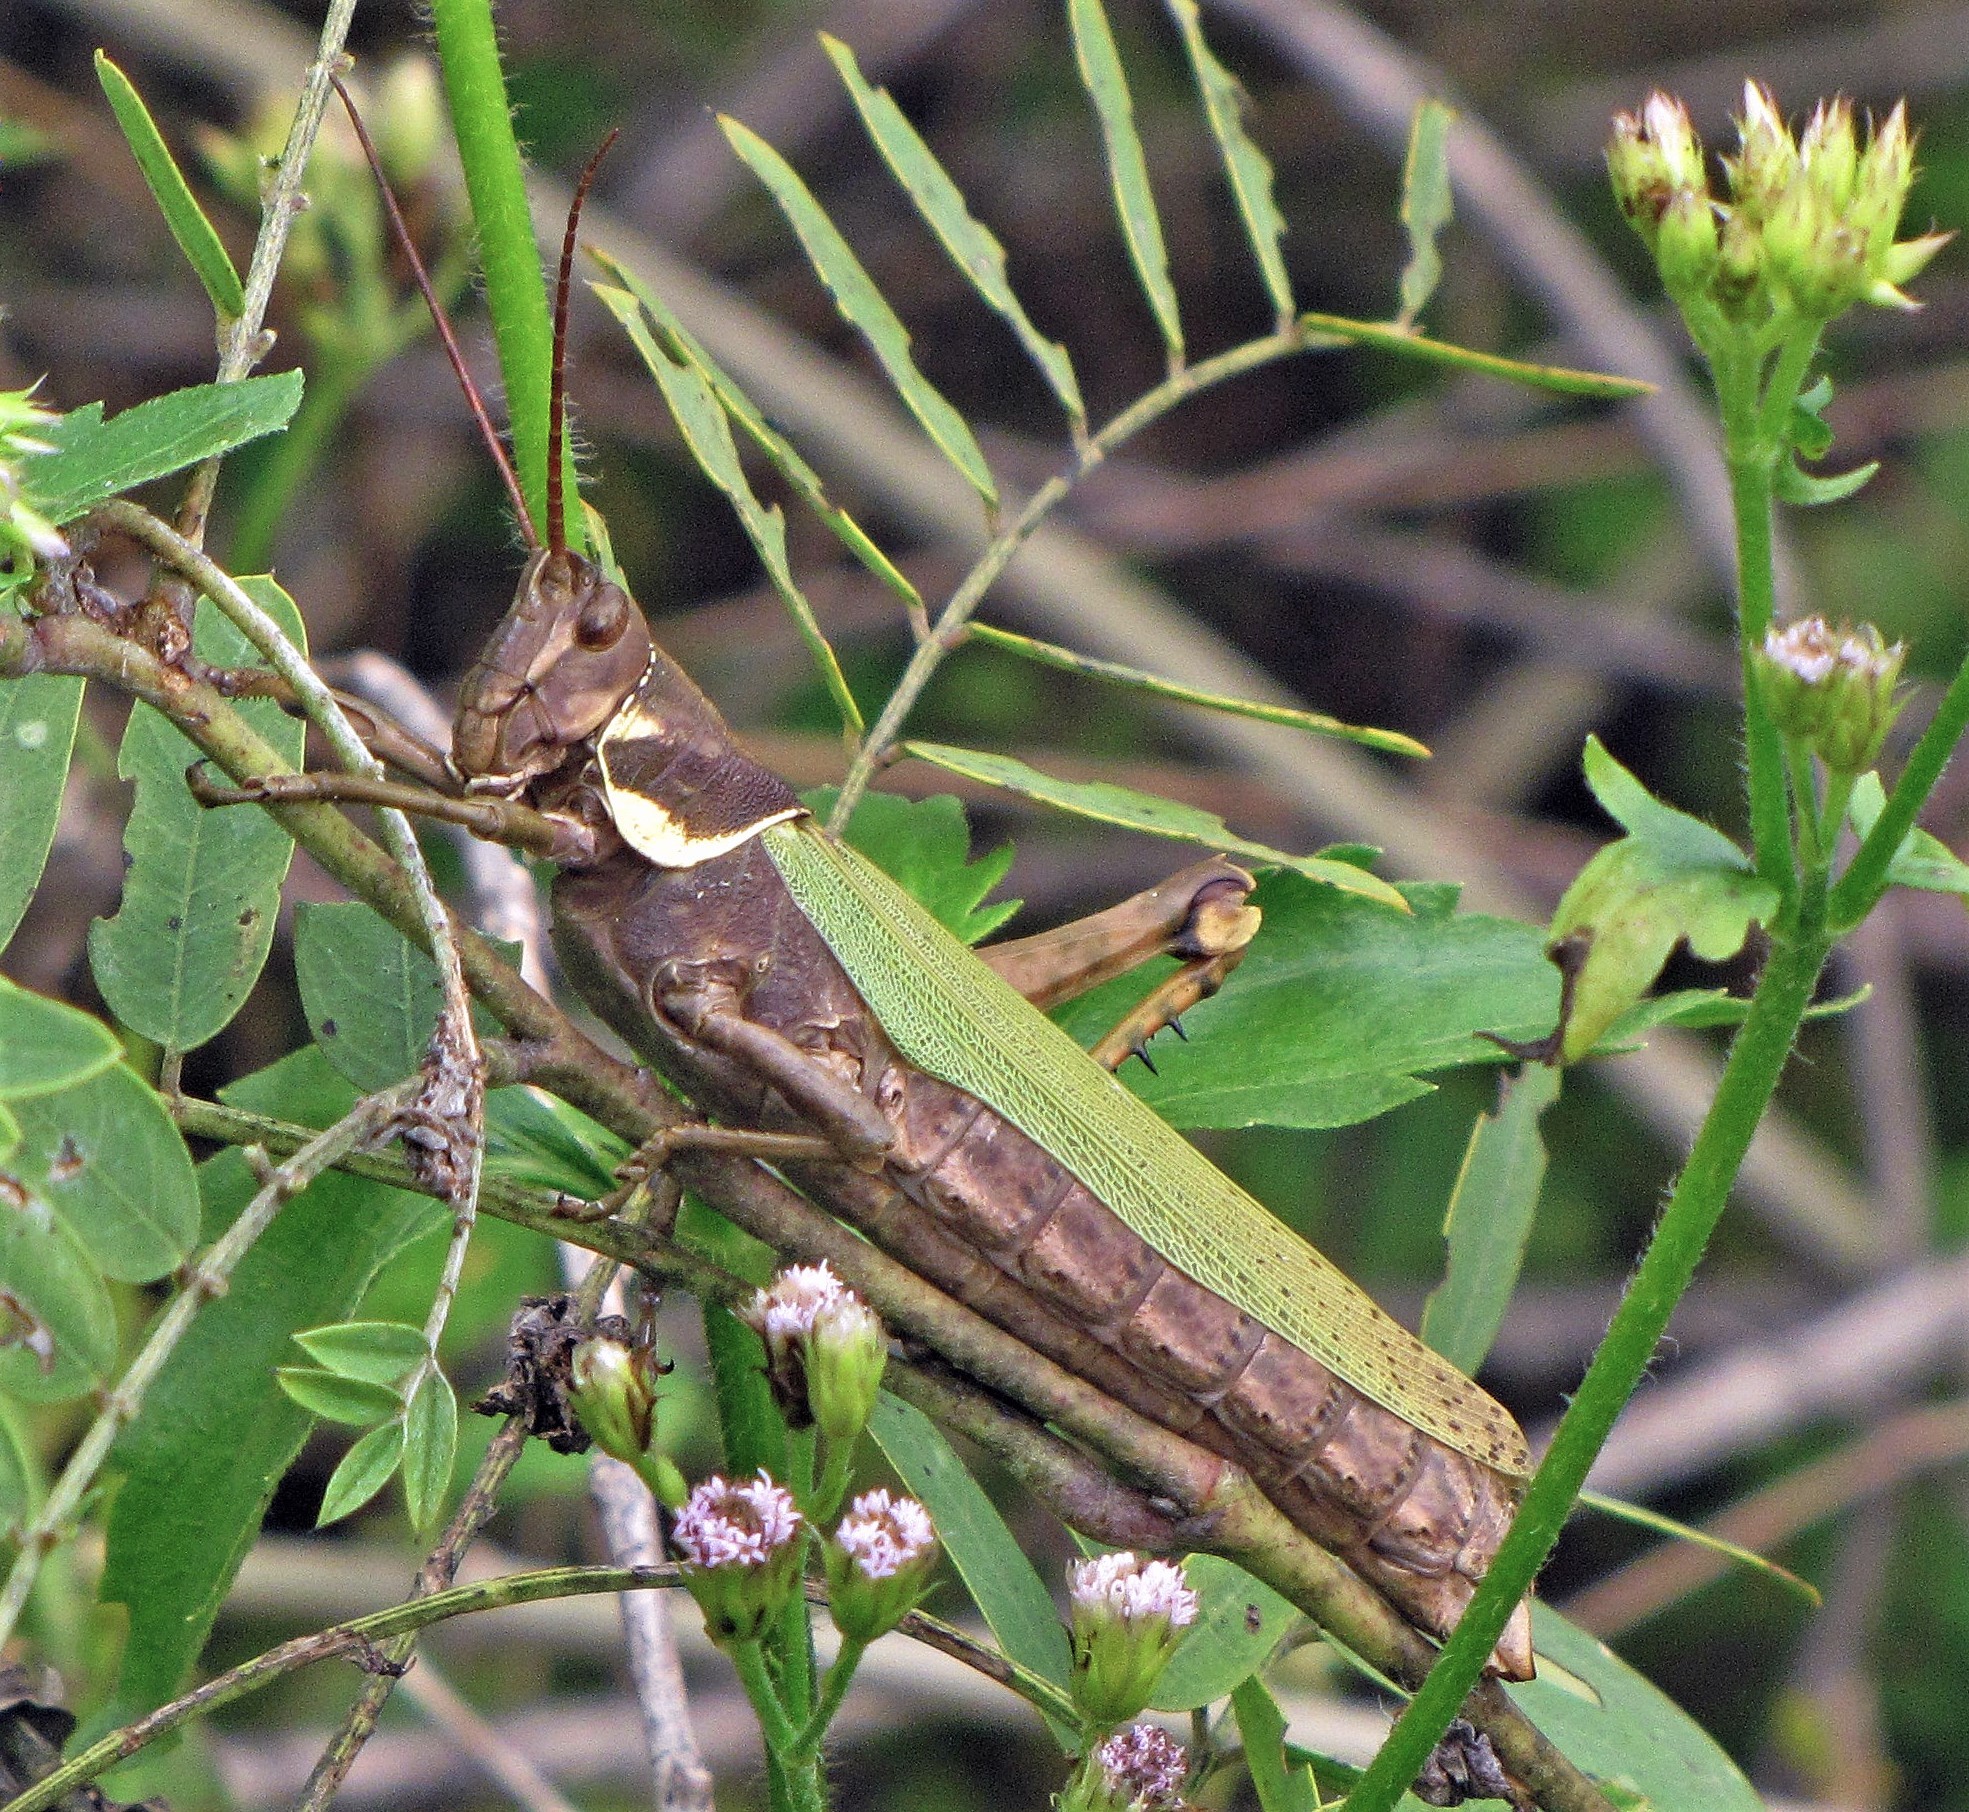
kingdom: Animalia
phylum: Arthropoda
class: Insecta
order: Orthoptera
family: Romaleidae
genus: Coryacris
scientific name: Coryacris angustipennis
